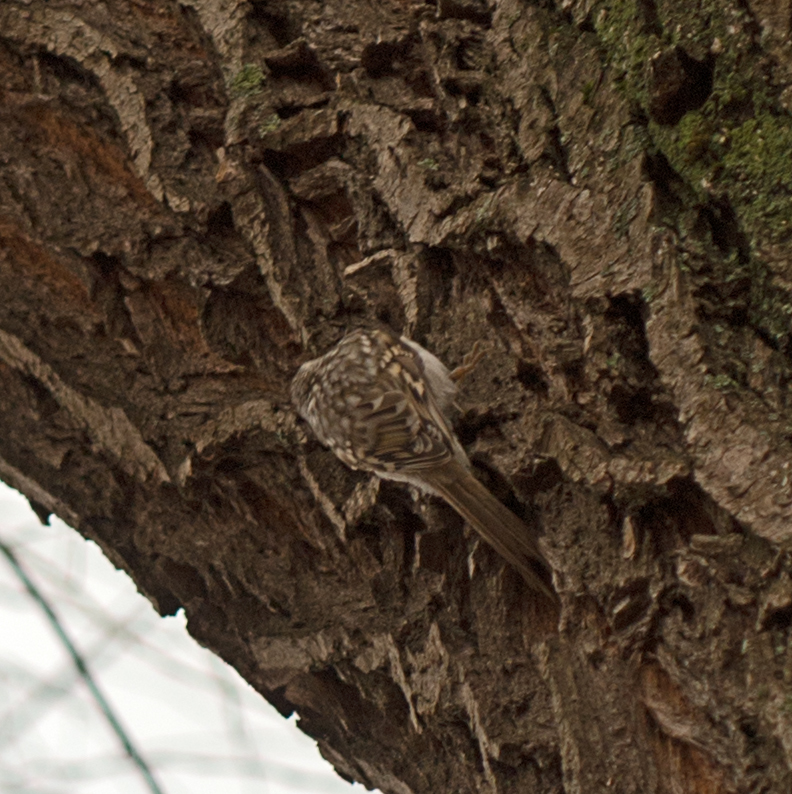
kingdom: Animalia
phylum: Chordata
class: Aves
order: Passeriformes
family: Certhiidae
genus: Certhia
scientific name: Certhia familiaris
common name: Eurasian treecreeper
